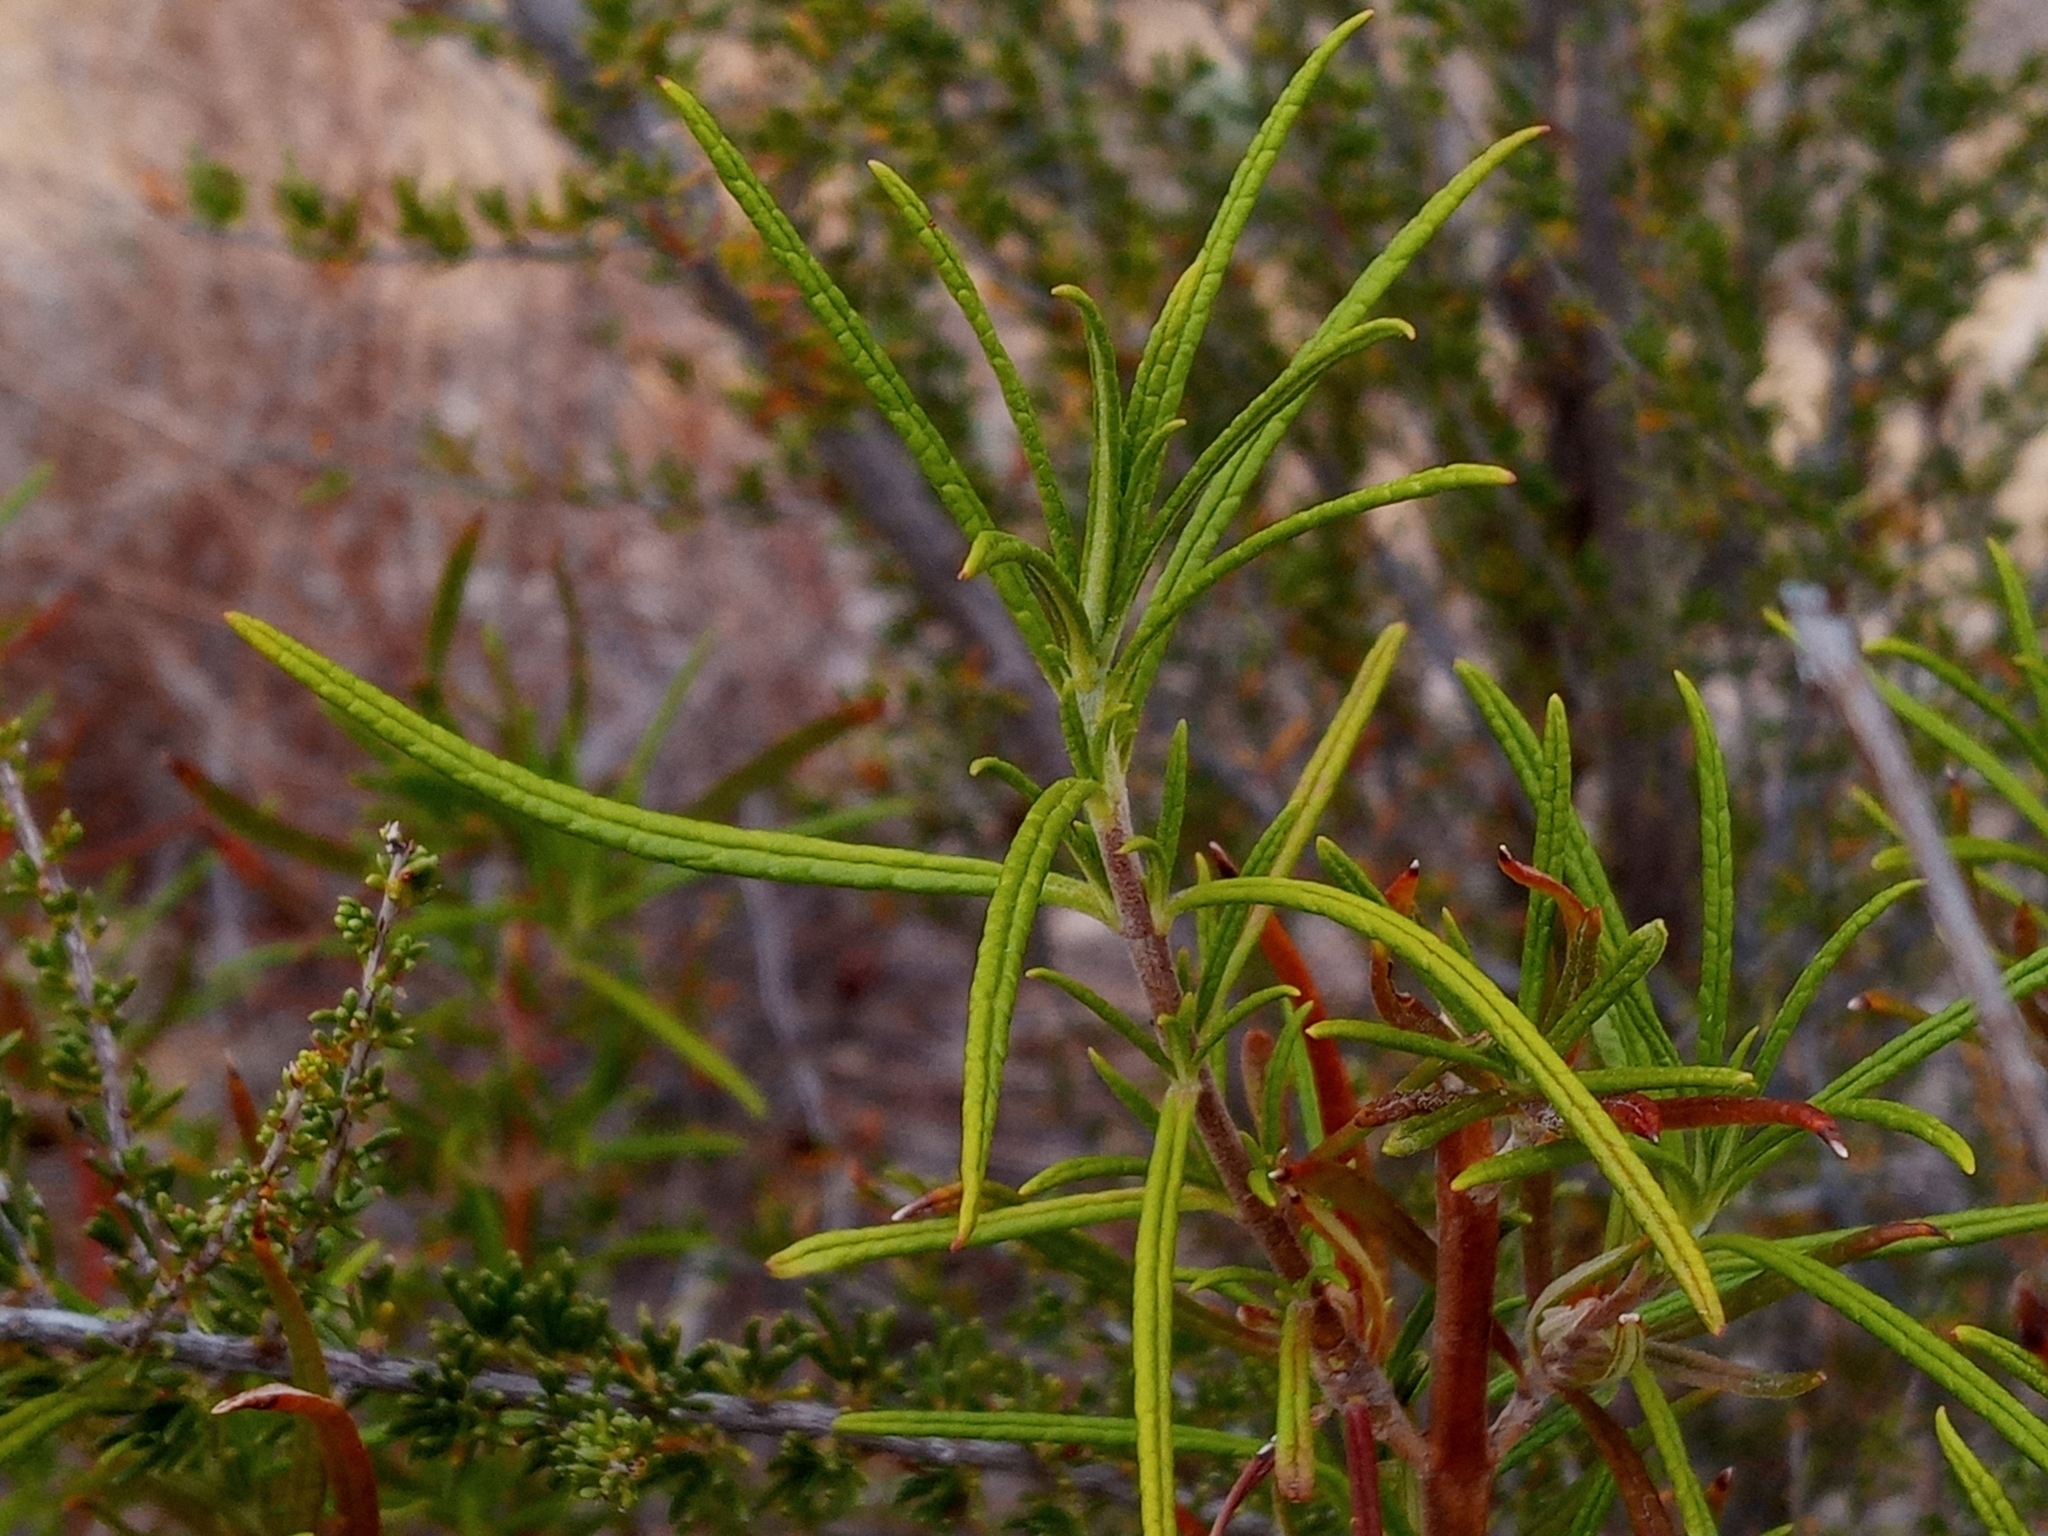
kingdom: Plantae
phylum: Tracheophyta
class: Magnoliopsida
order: Lamiales
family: Lamiaceae
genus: Trichostema
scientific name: Trichostema lanatum
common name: Woolly bluecurls
